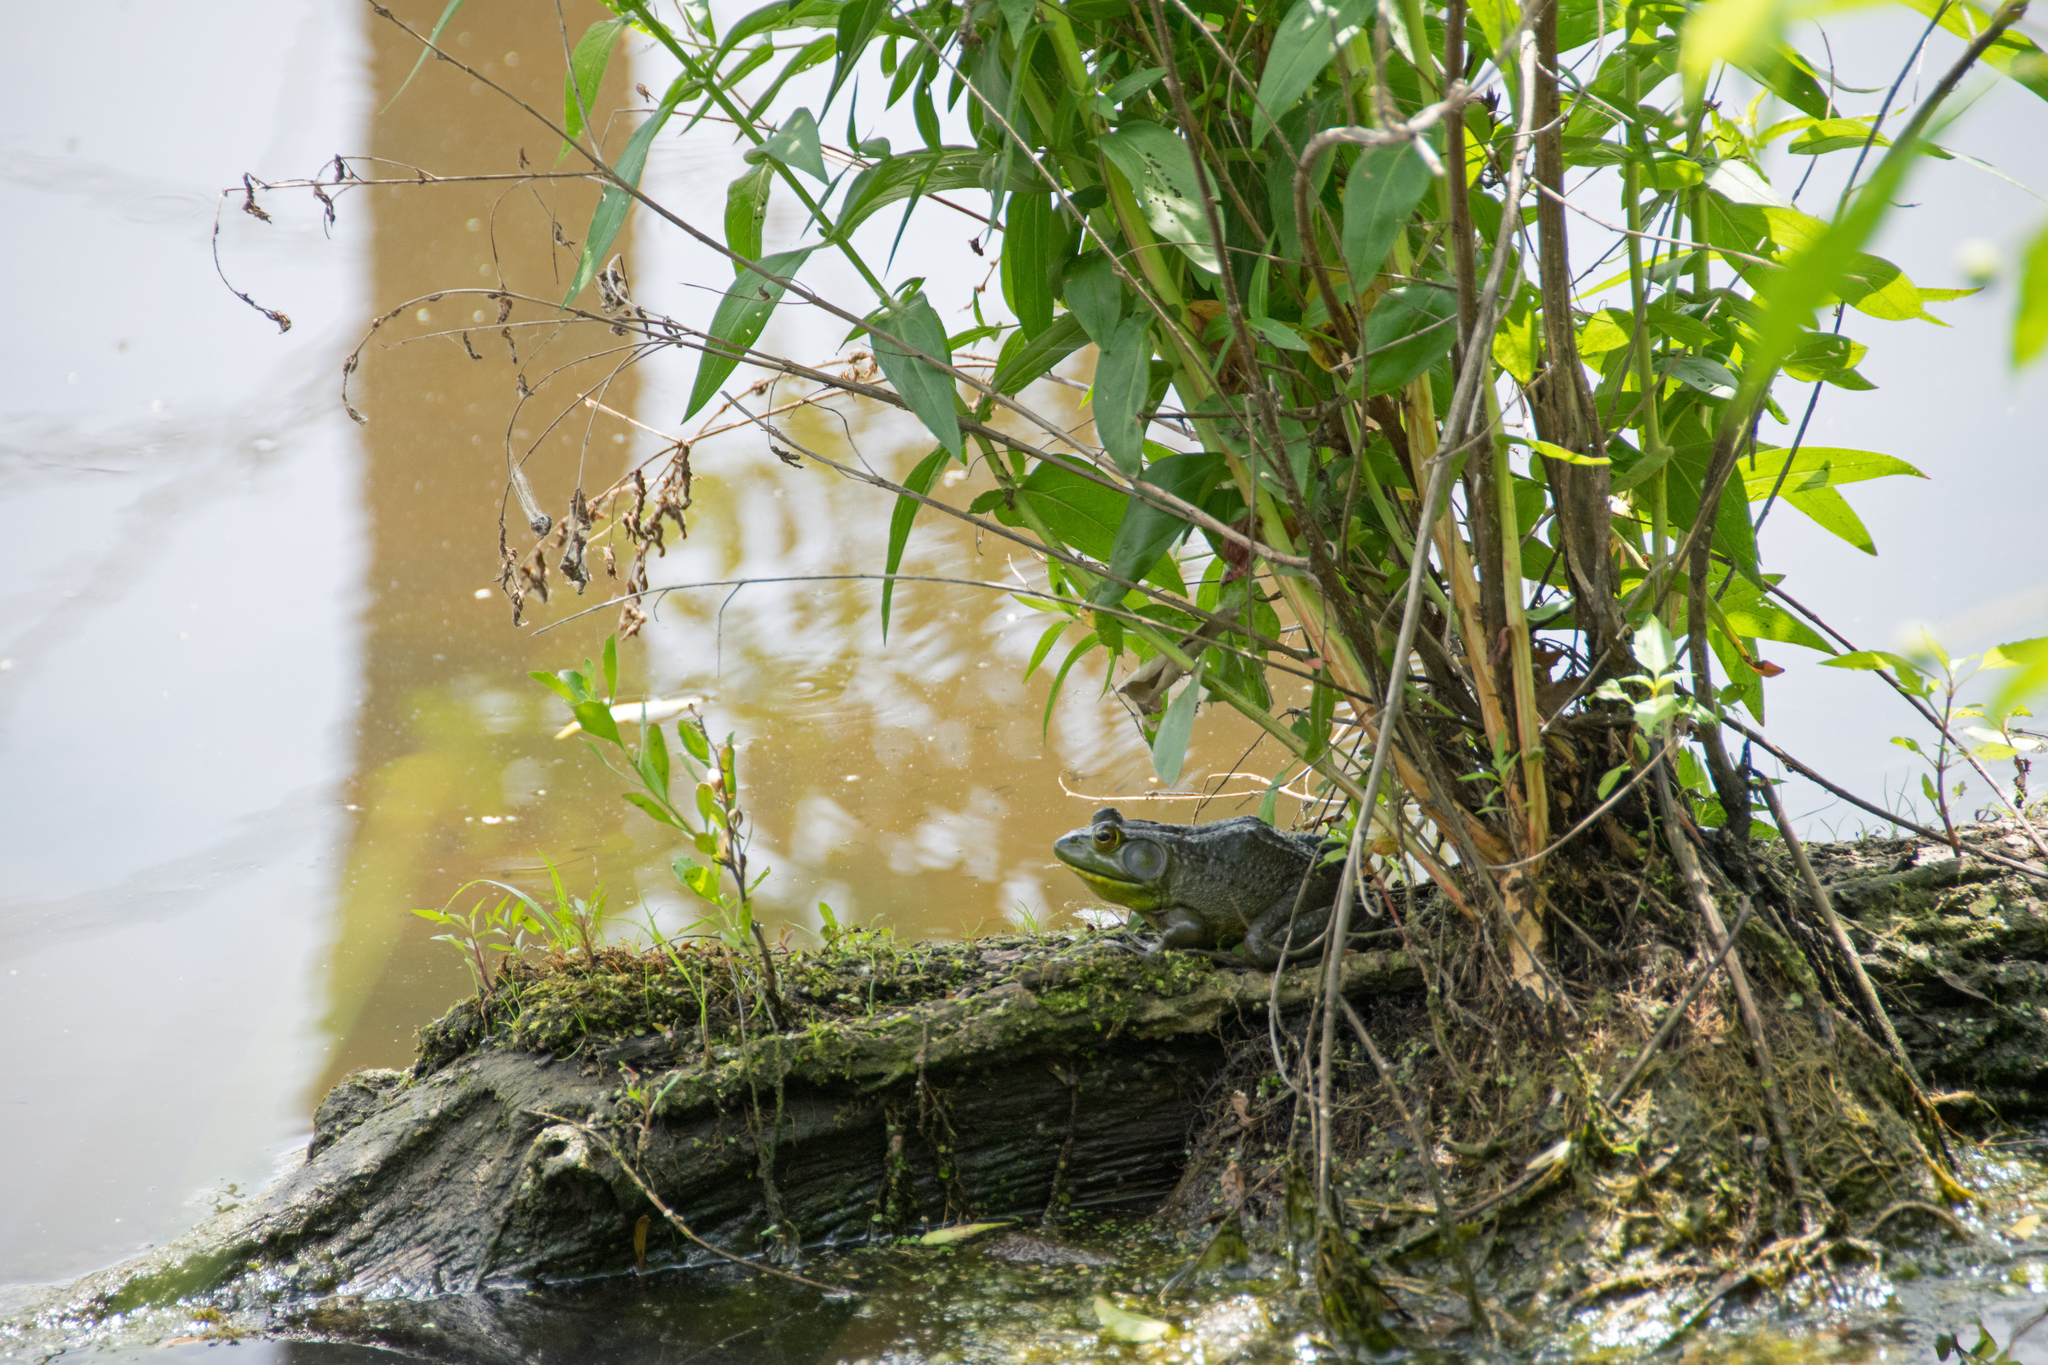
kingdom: Animalia
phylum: Chordata
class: Amphibia
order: Anura
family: Ranidae
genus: Lithobates
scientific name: Lithobates catesbeianus
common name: American bullfrog
